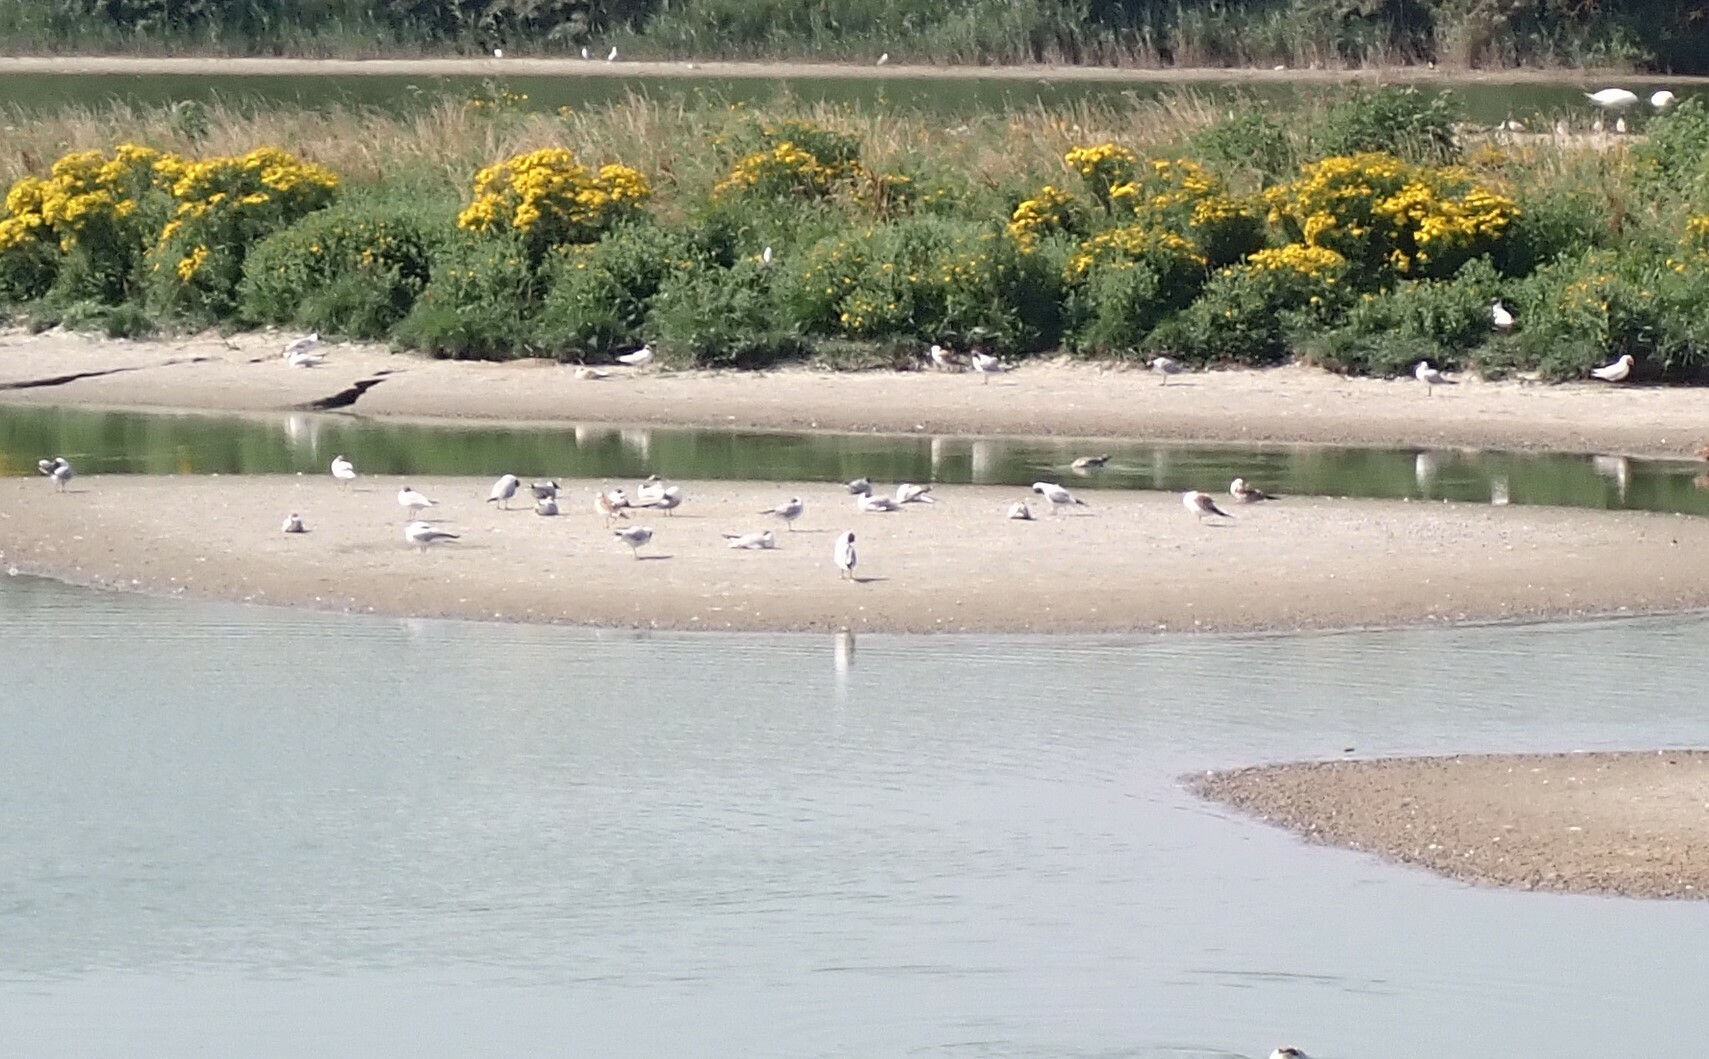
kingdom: Animalia
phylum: Chordata
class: Aves
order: Charadriiformes
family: Laridae
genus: Chroicocephalus
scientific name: Chroicocephalus ridibundus
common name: Black-headed gull
